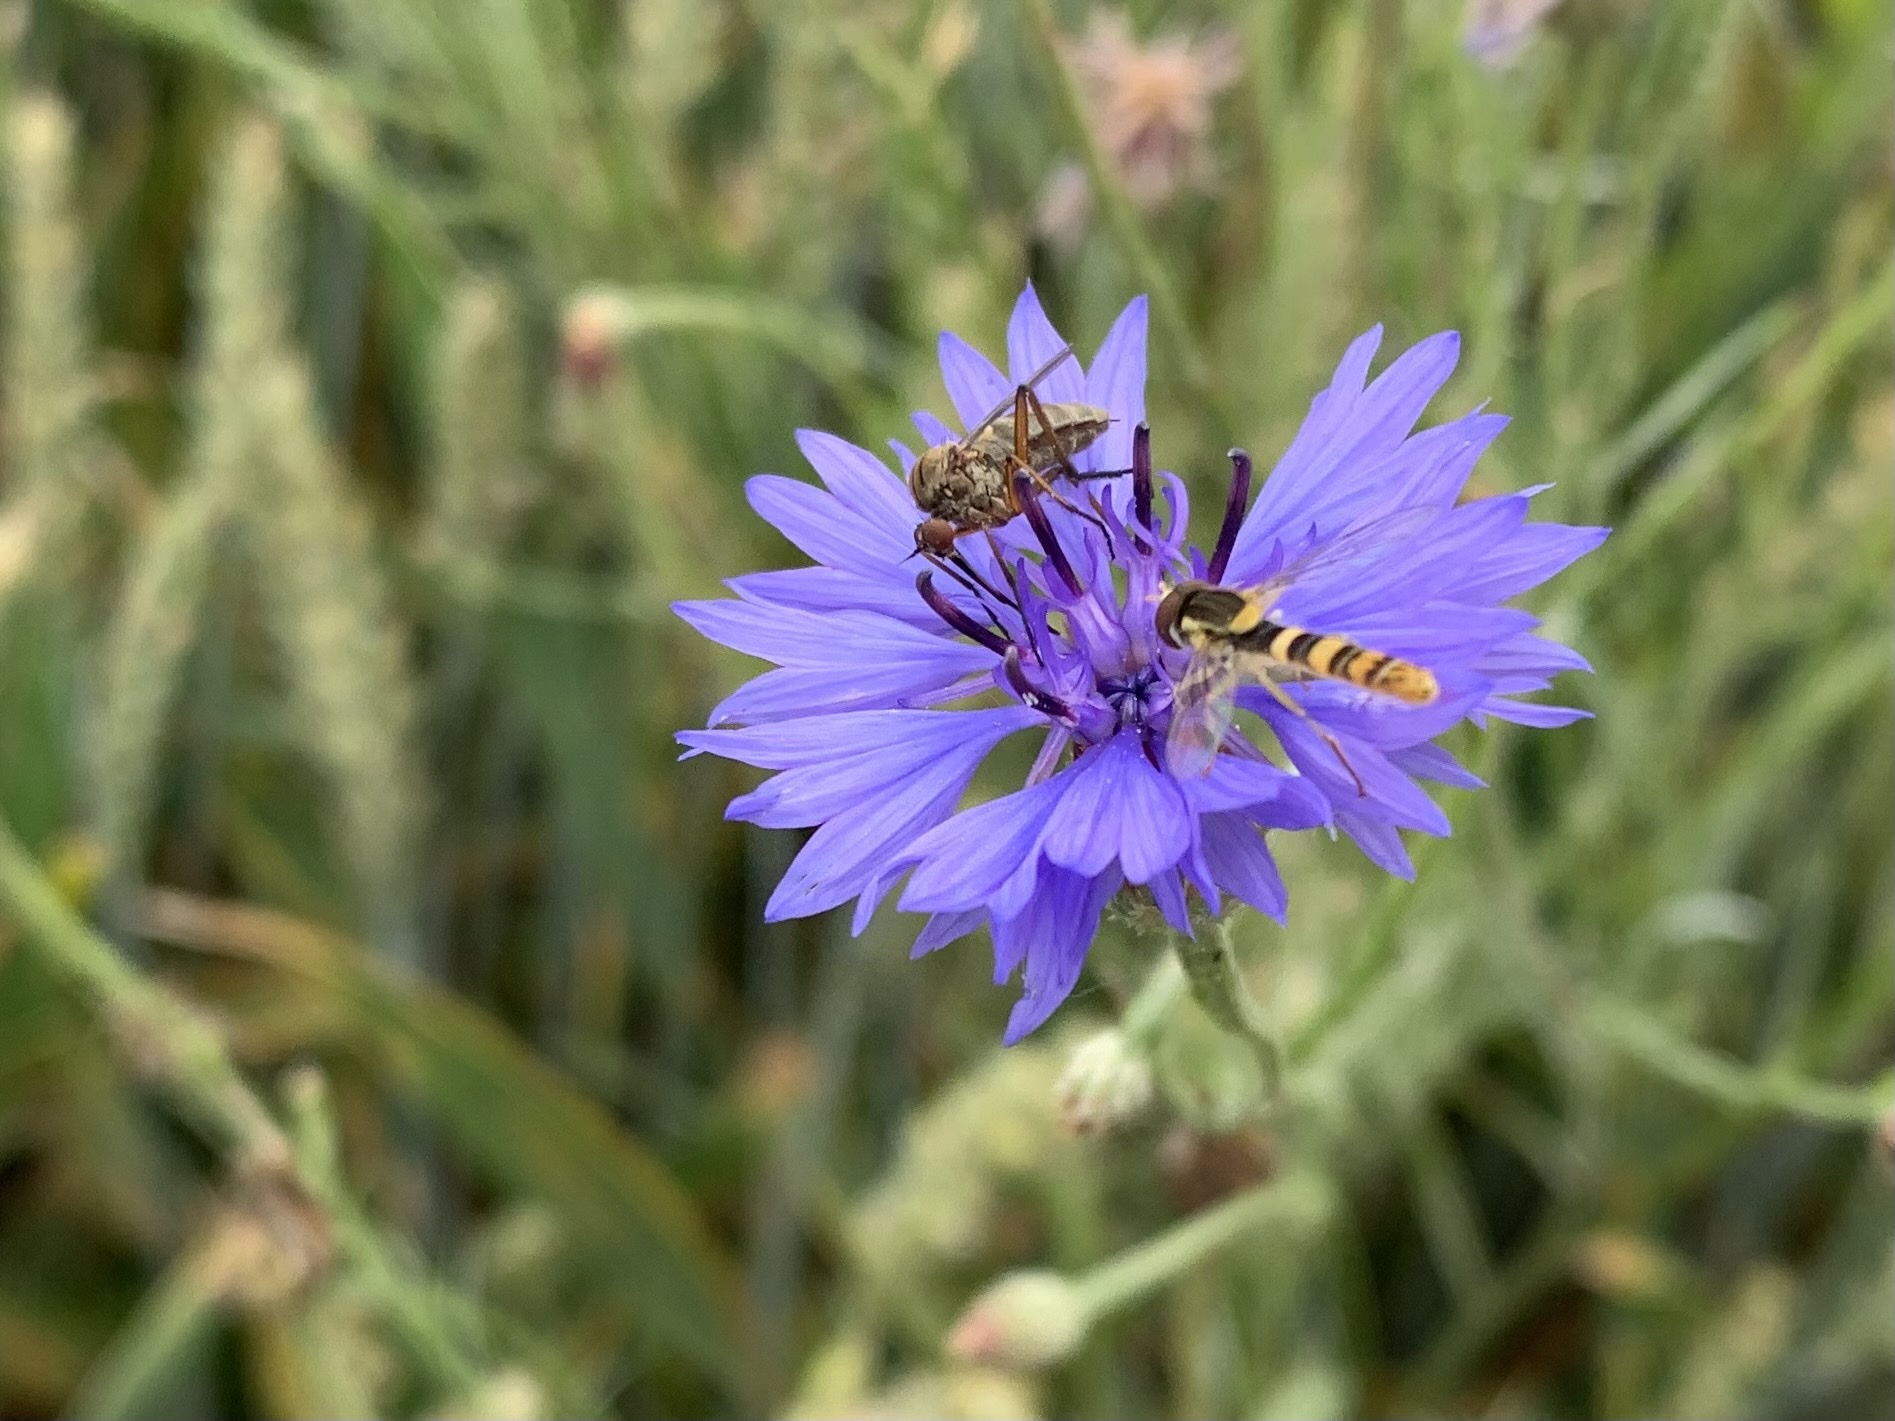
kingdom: Animalia
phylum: Arthropoda
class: Insecta
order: Diptera
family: Syrphidae
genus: Sphaerophoria
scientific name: Sphaerophoria
